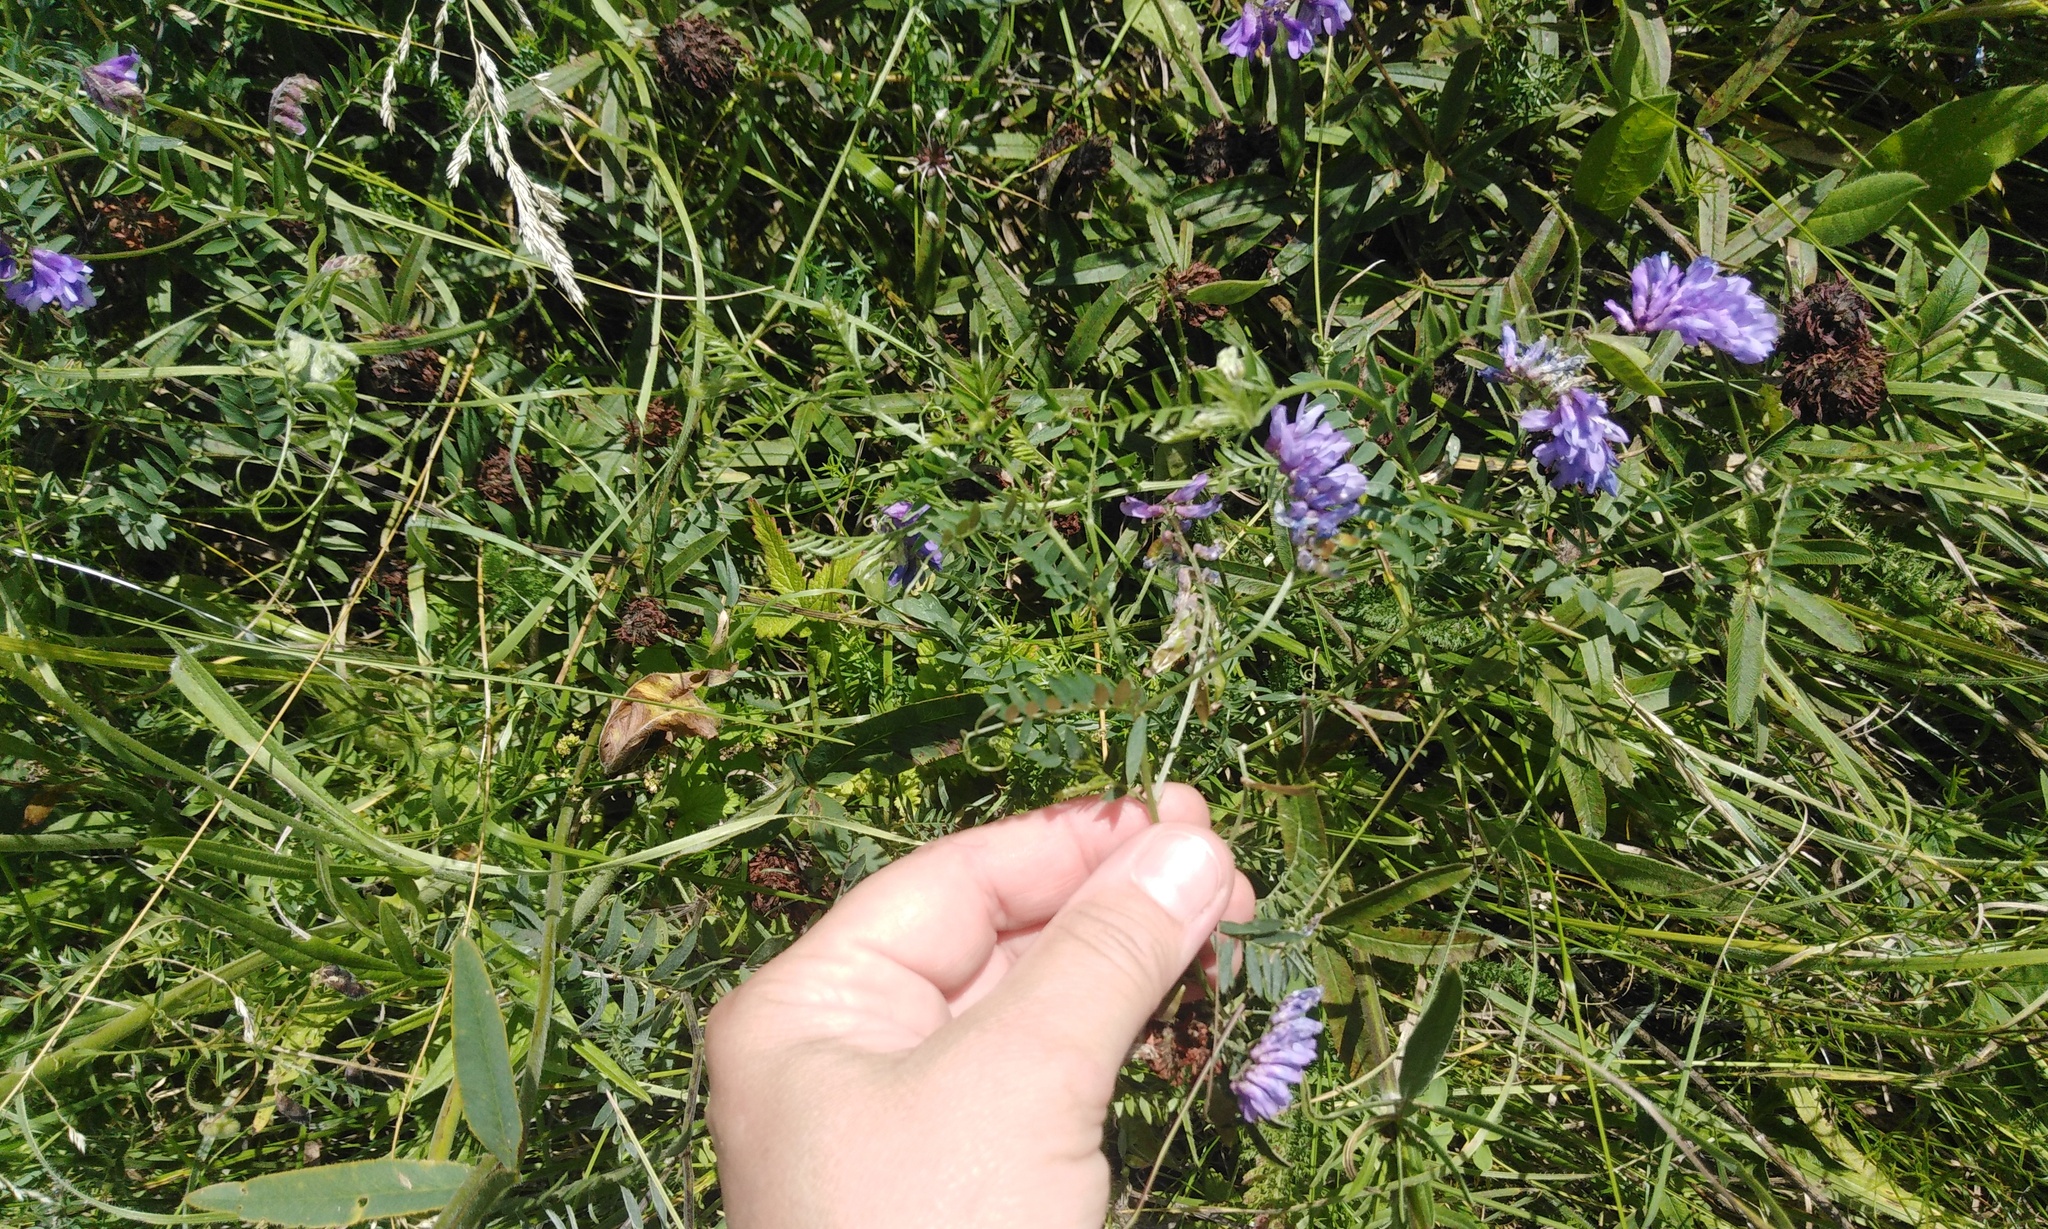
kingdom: Plantae
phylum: Tracheophyta
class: Magnoliopsida
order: Fabales
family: Fabaceae
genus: Vicia
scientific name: Vicia cracca
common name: Bird vetch
